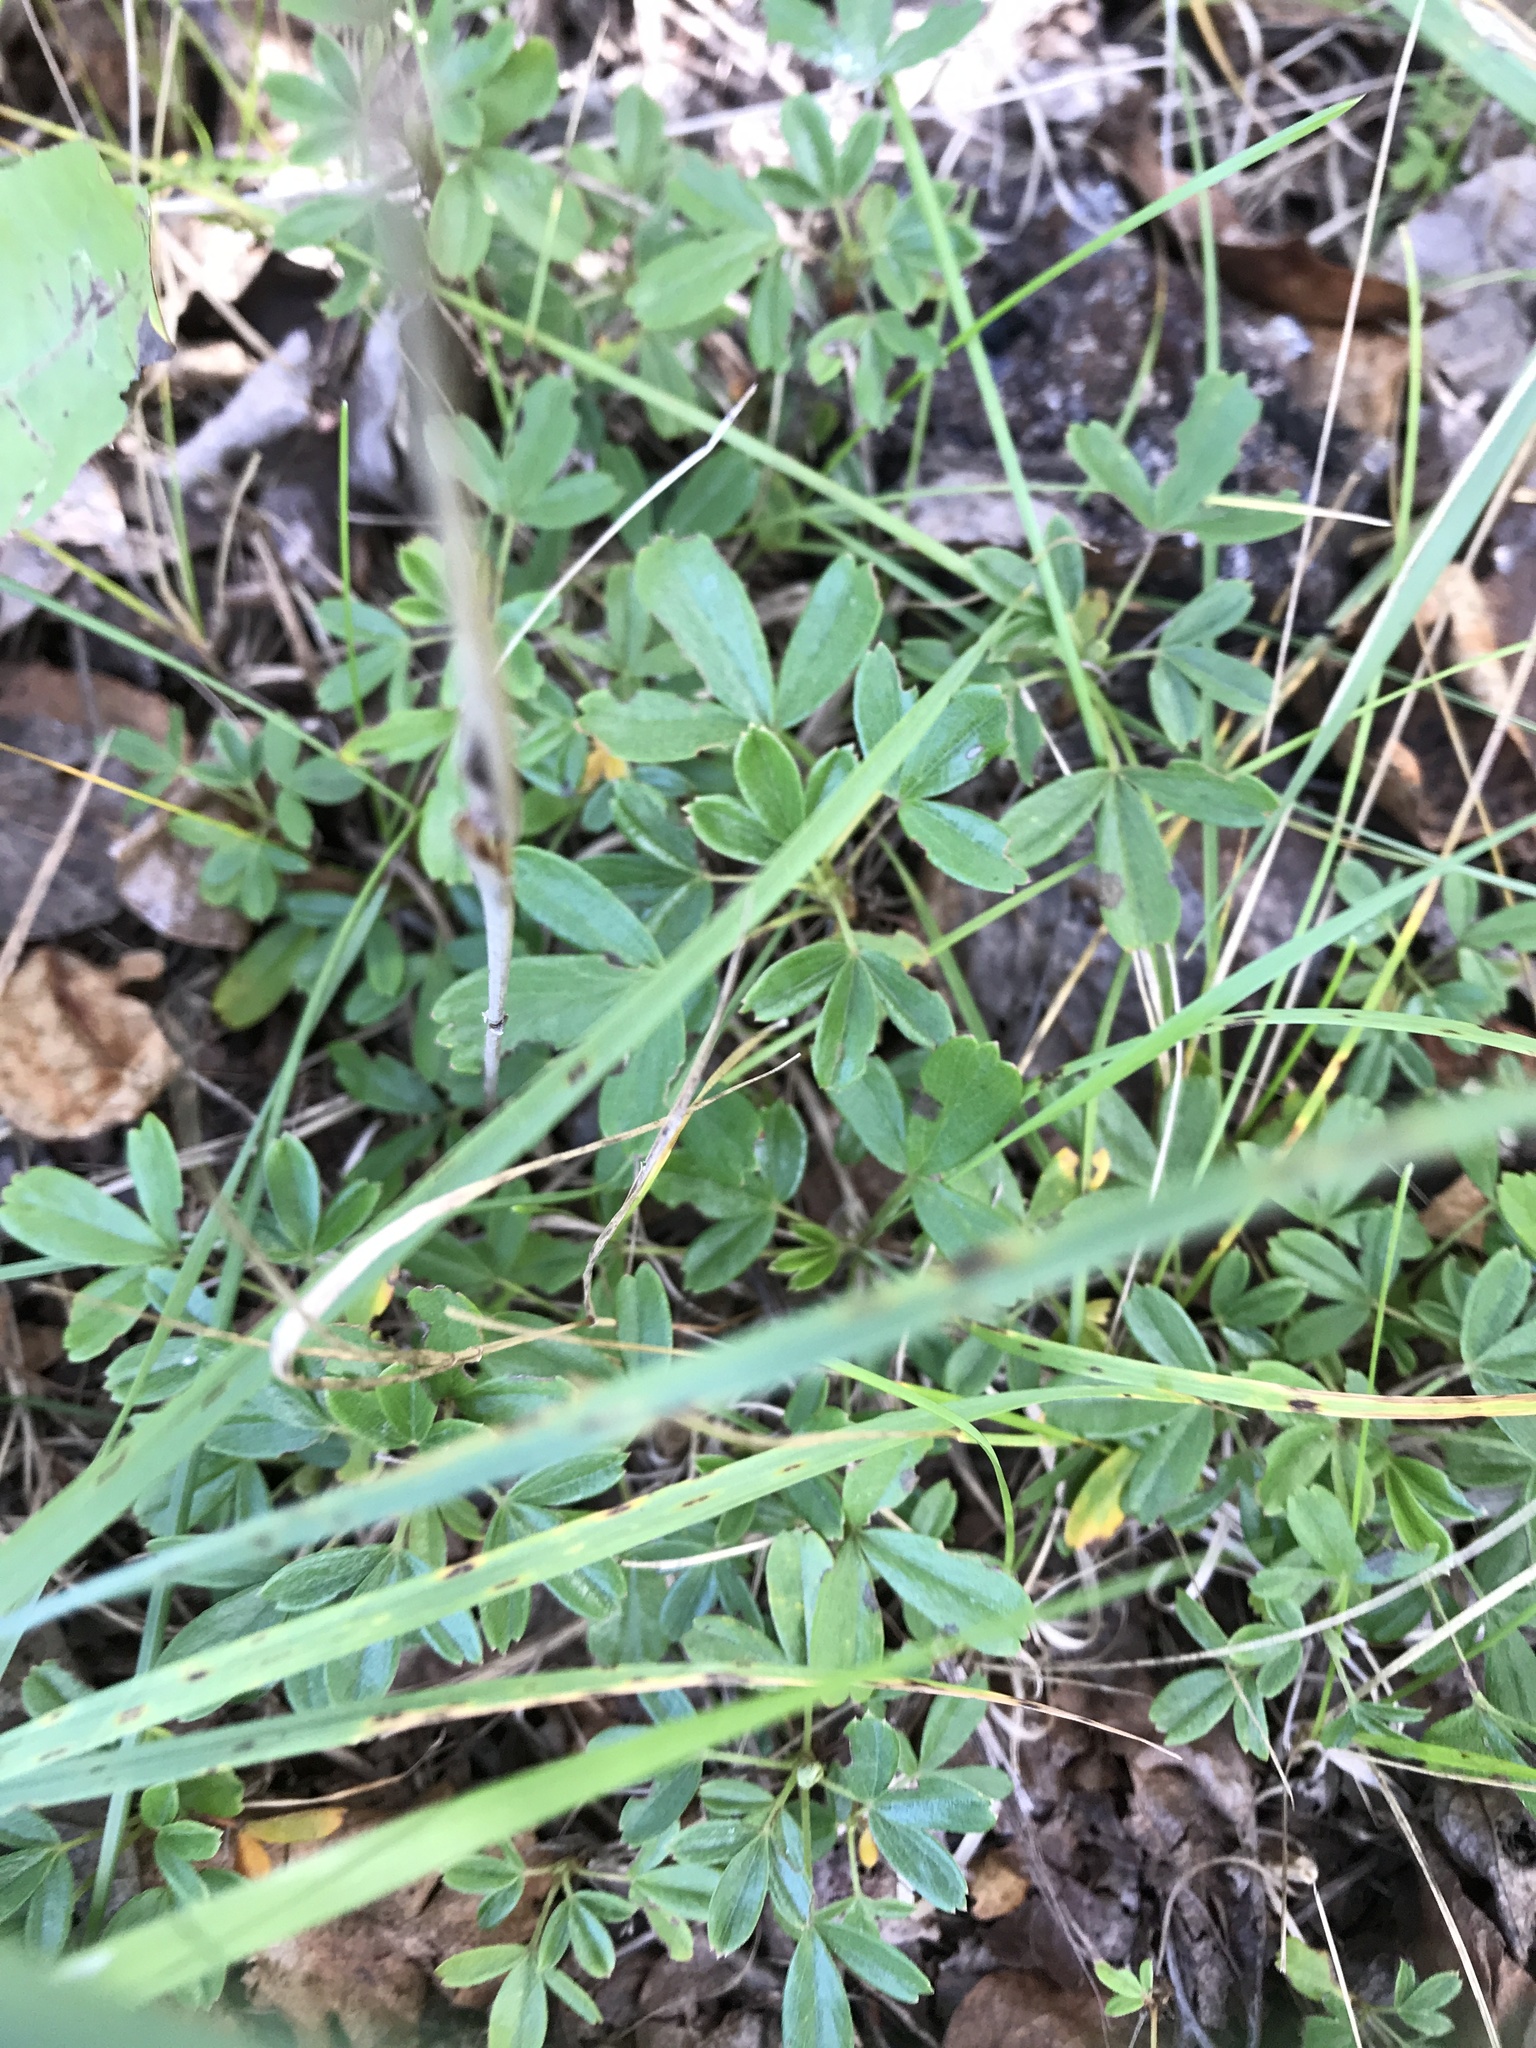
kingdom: Plantae
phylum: Tracheophyta
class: Magnoliopsida
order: Rosales
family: Rosaceae
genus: Sibbaldia
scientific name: Sibbaldia tridentata
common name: Three-toothed cinquefoil
